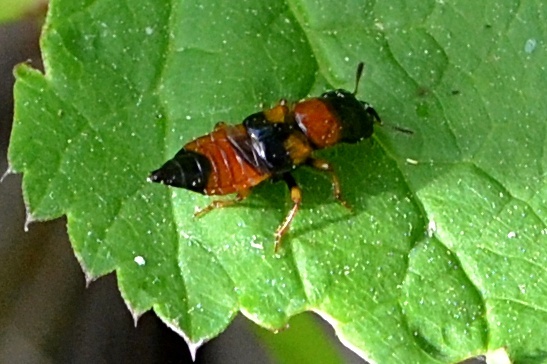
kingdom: Animalia
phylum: Arthropoda
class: Insecta
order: Coleoptera
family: Staphylinidae
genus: Oxyporus
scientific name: Oxyporus rufus
